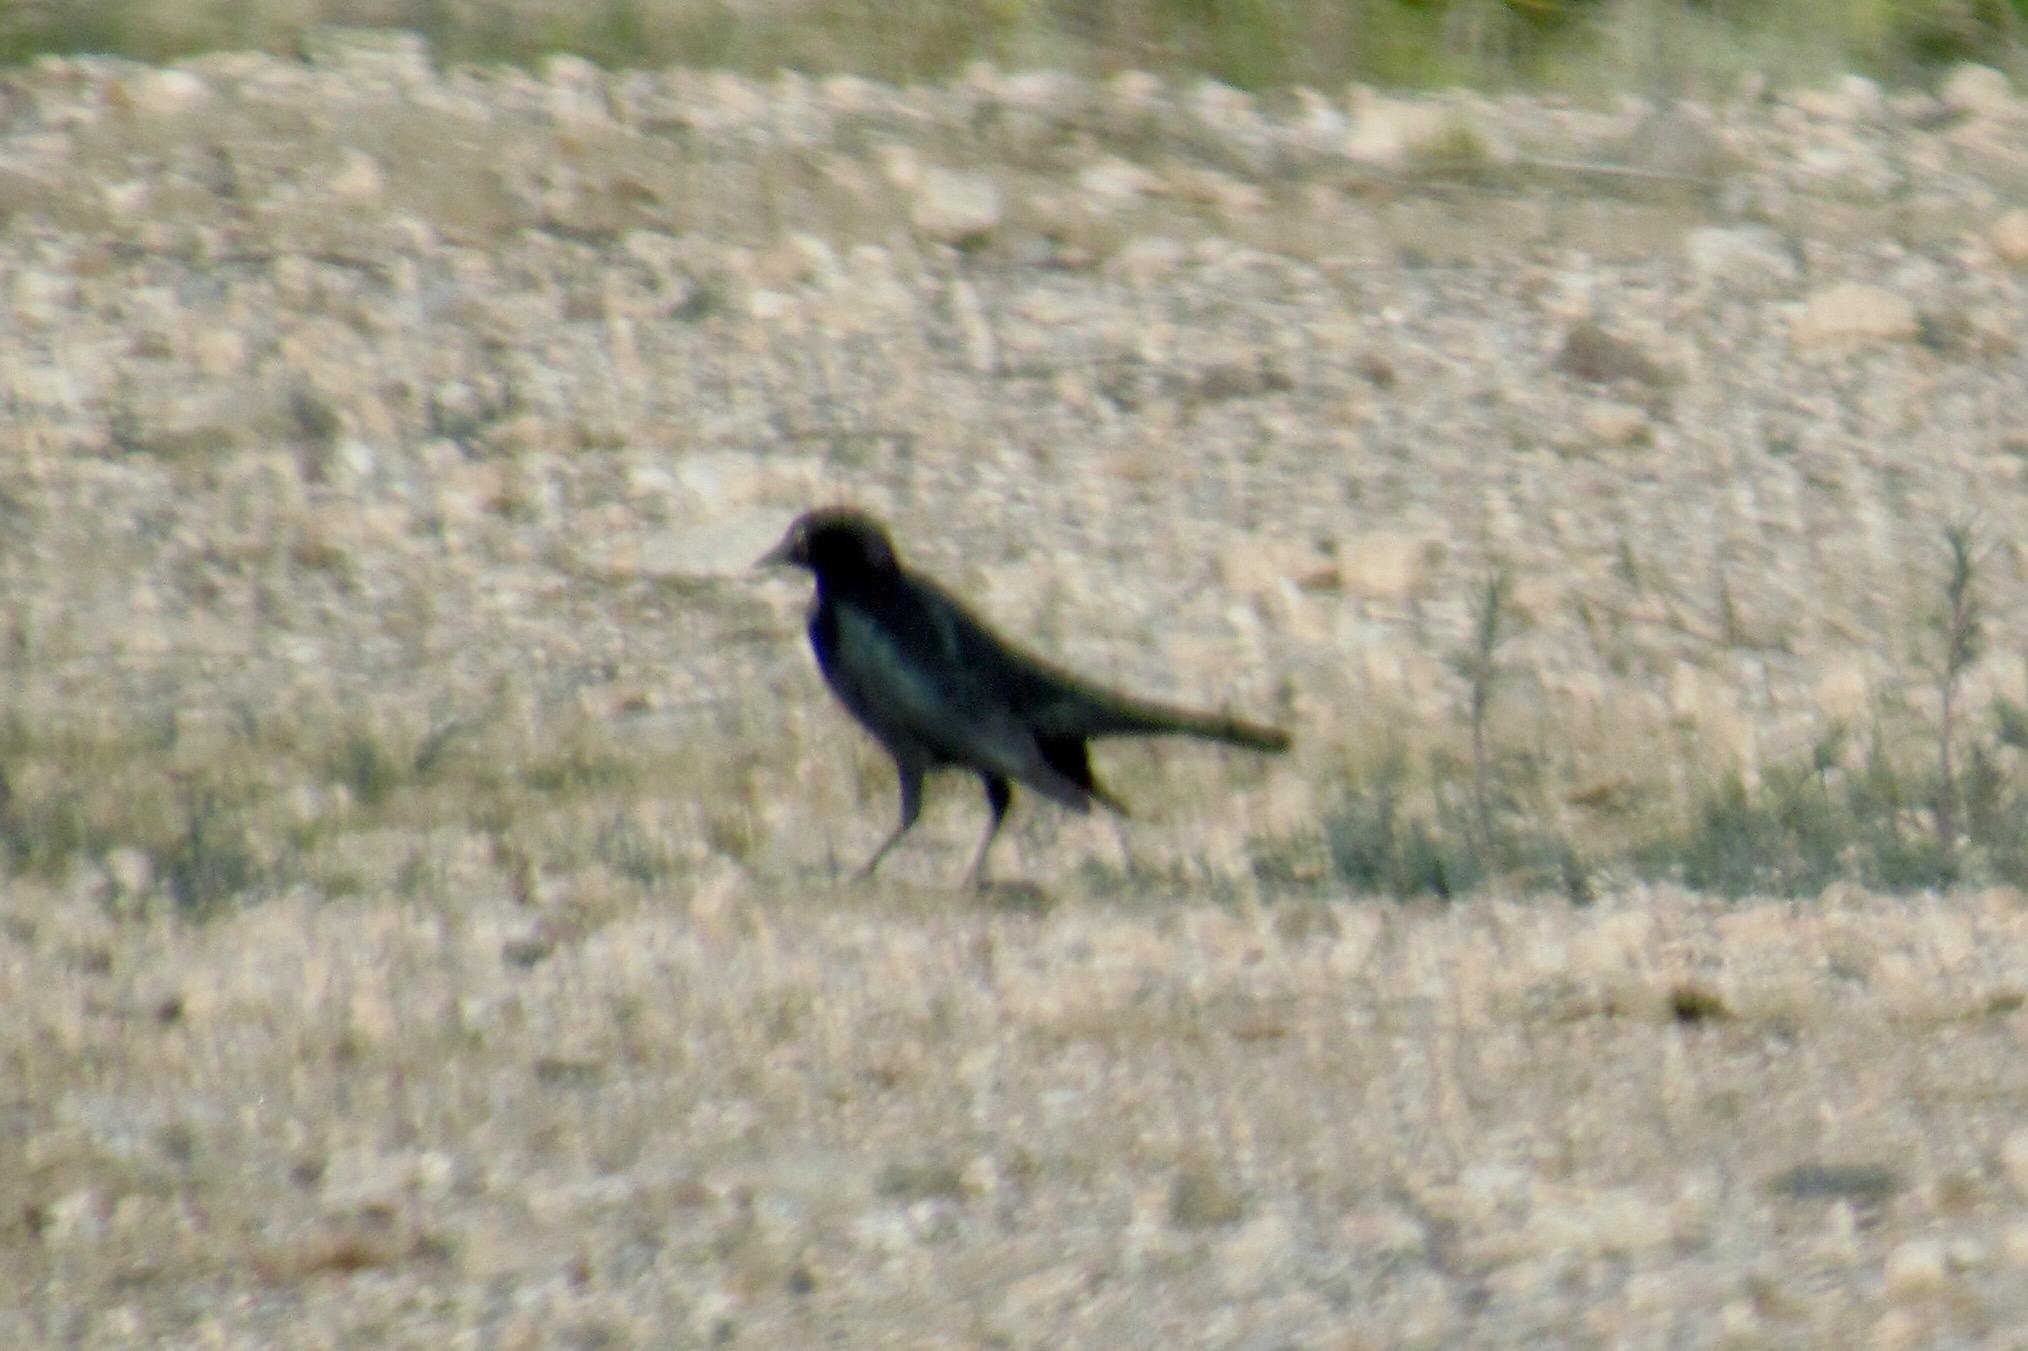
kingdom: Animalia
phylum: Chordata
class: Aves
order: Passeriformes
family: Icteridae
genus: Euphagus
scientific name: Euphagus cyanocephalus
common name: Brewer's blackbird
